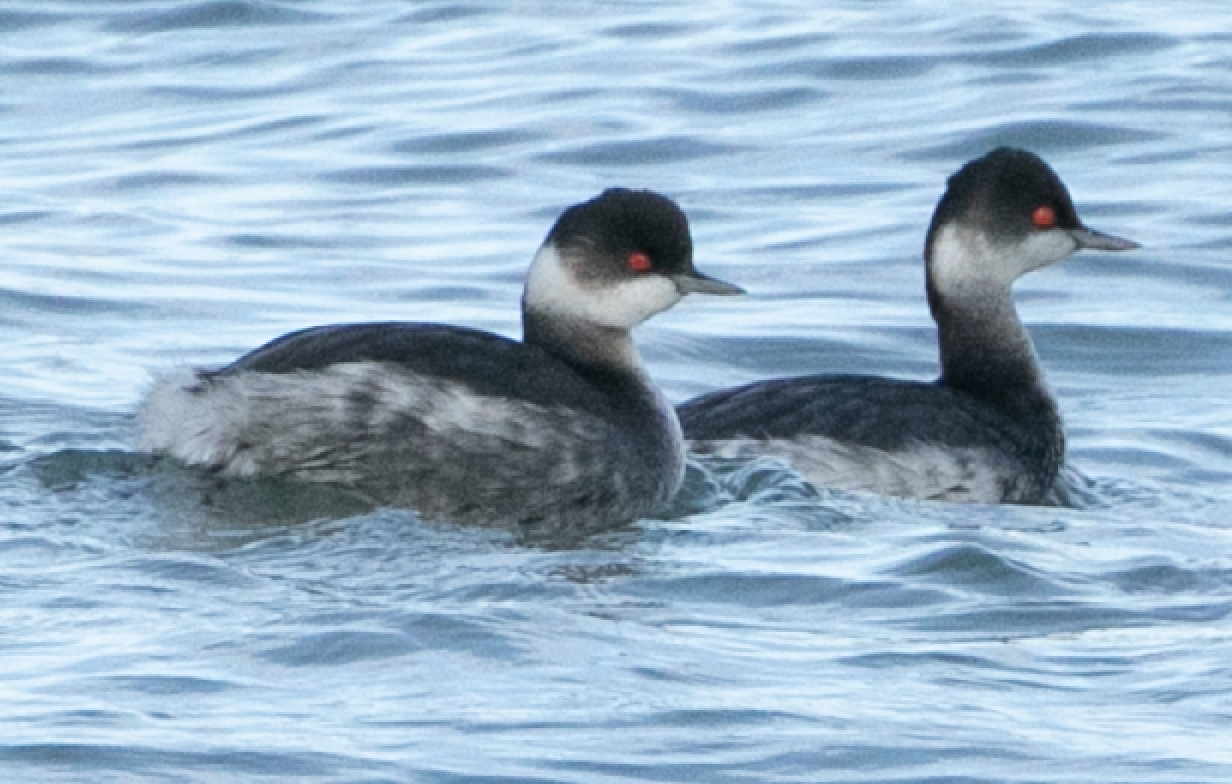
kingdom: Animalia
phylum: Chordata
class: Aves
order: Podicipediformes
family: Podicipedidae
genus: Podiceps
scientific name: Podiceps nigricollis
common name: Black-necked grebe
